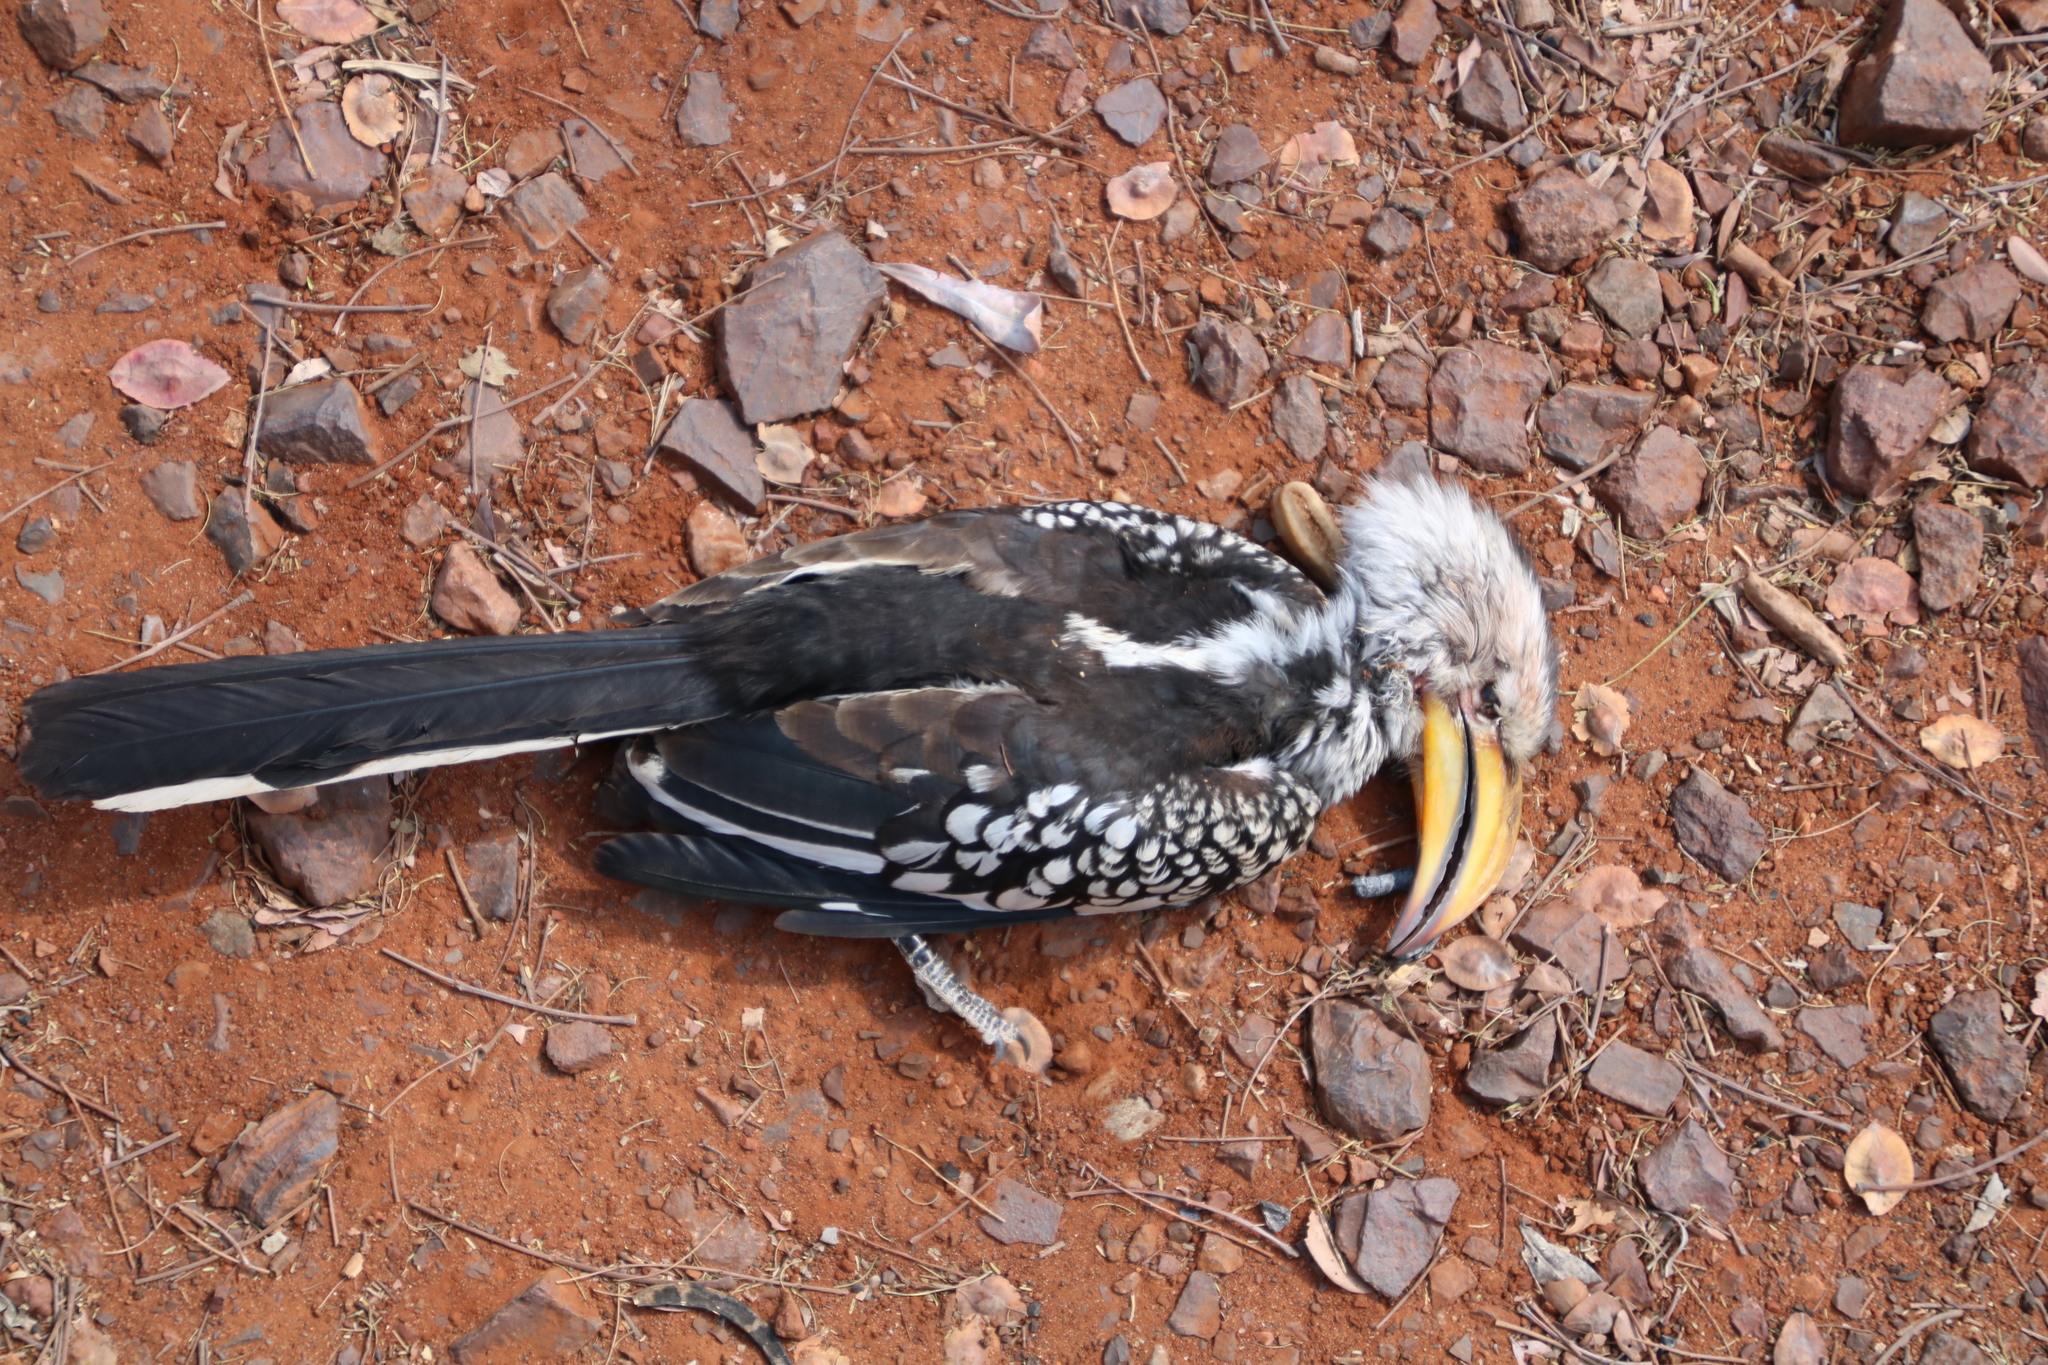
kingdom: Animalia
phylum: Chordata
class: Aves
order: Bucerotiformes
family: Bucerotidae
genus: Tockus
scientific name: Tockus leucomelas
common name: Southern yellow-billed hornbill
